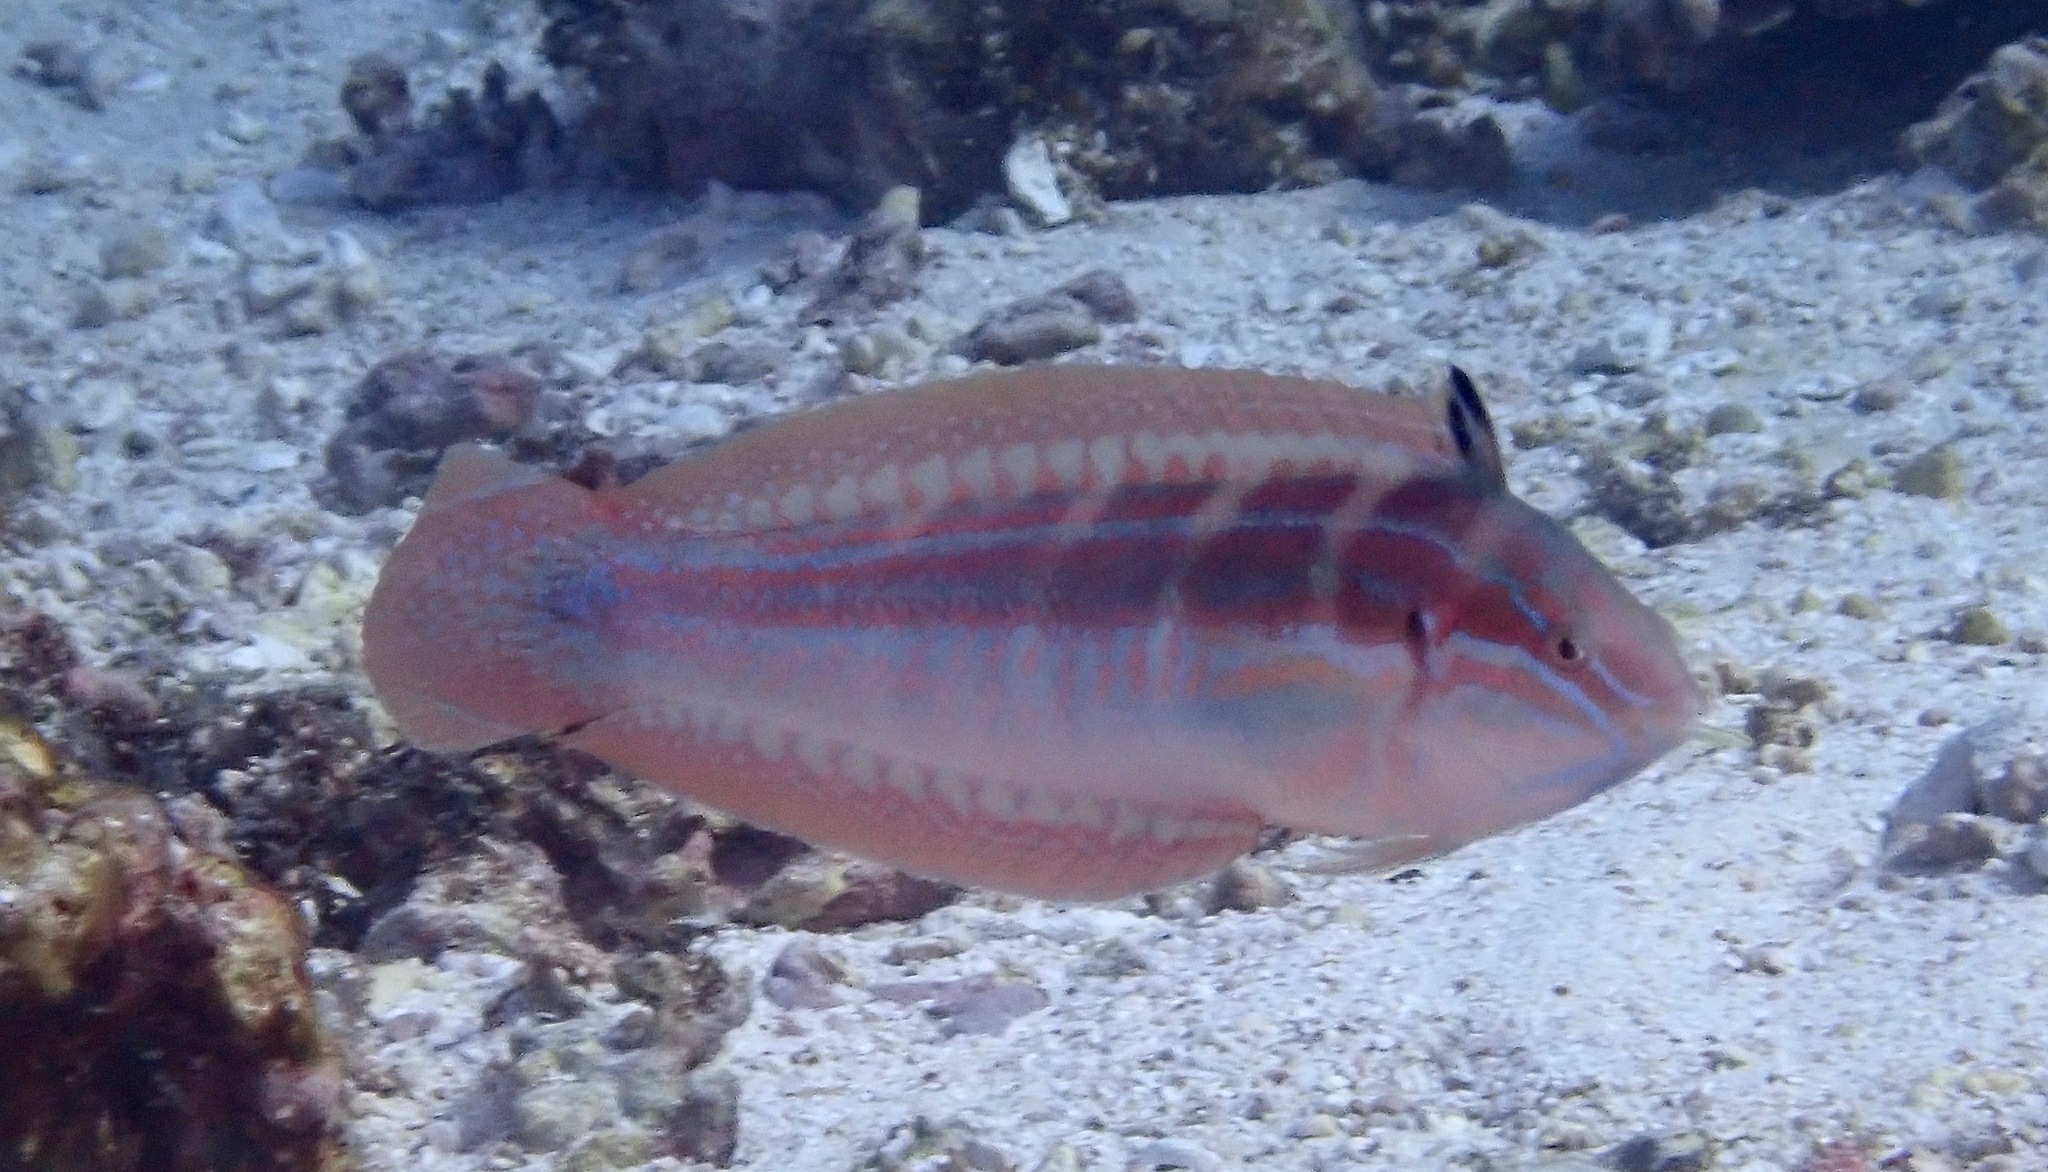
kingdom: Animalia
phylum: Chordata
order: Perciformes
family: Labridae
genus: Coris
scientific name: Coris caudimacula
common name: Spottail coris
